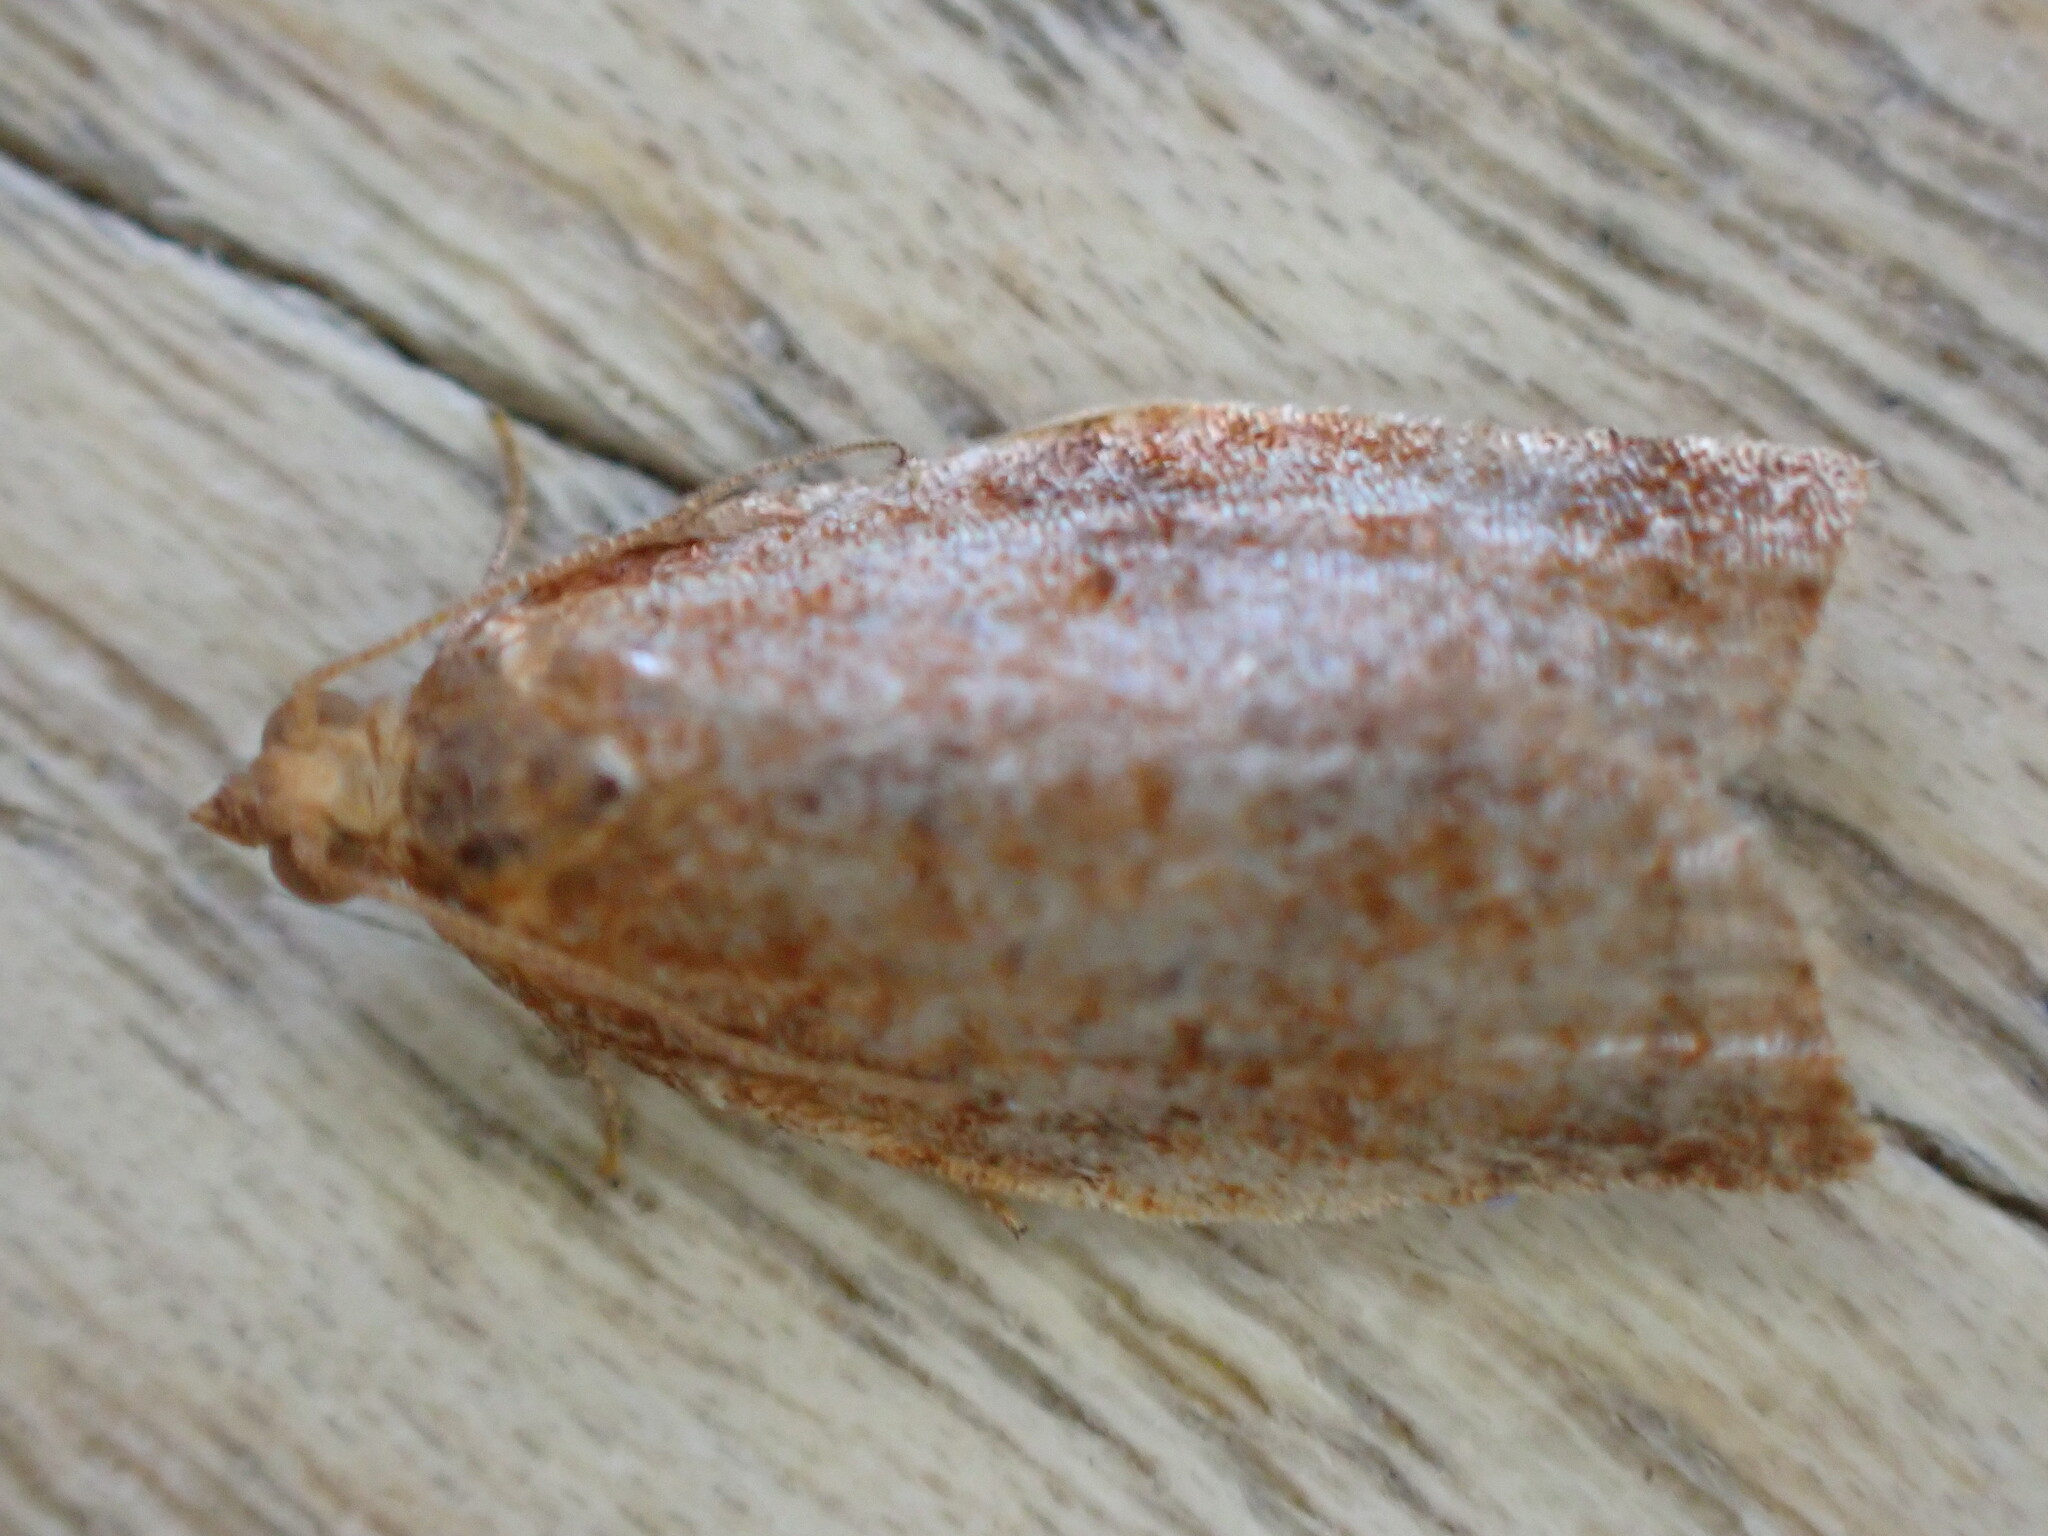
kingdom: Animalia
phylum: Arthropoda
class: Insecta
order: Lepidoptera
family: Tortricidae
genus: Clepsis
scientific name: Clepsis consimilana
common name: Privet tortrix
